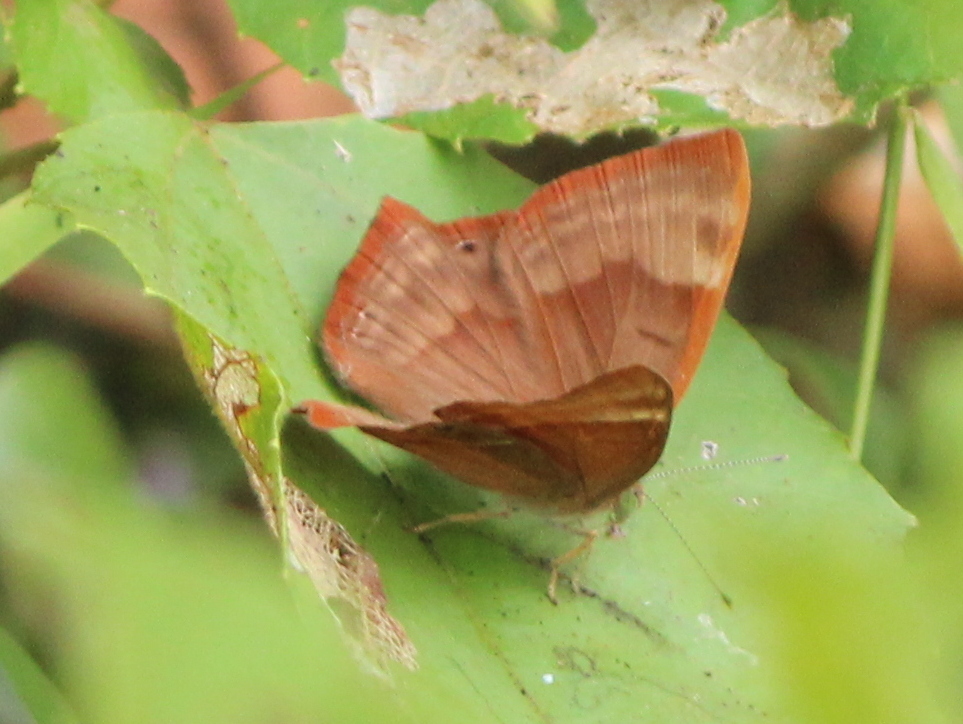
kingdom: Animalia
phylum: Arthropoda
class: Insecta
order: Lepidoptera
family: Lycaenidae
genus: Abisara
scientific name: Abisara bifasciata
